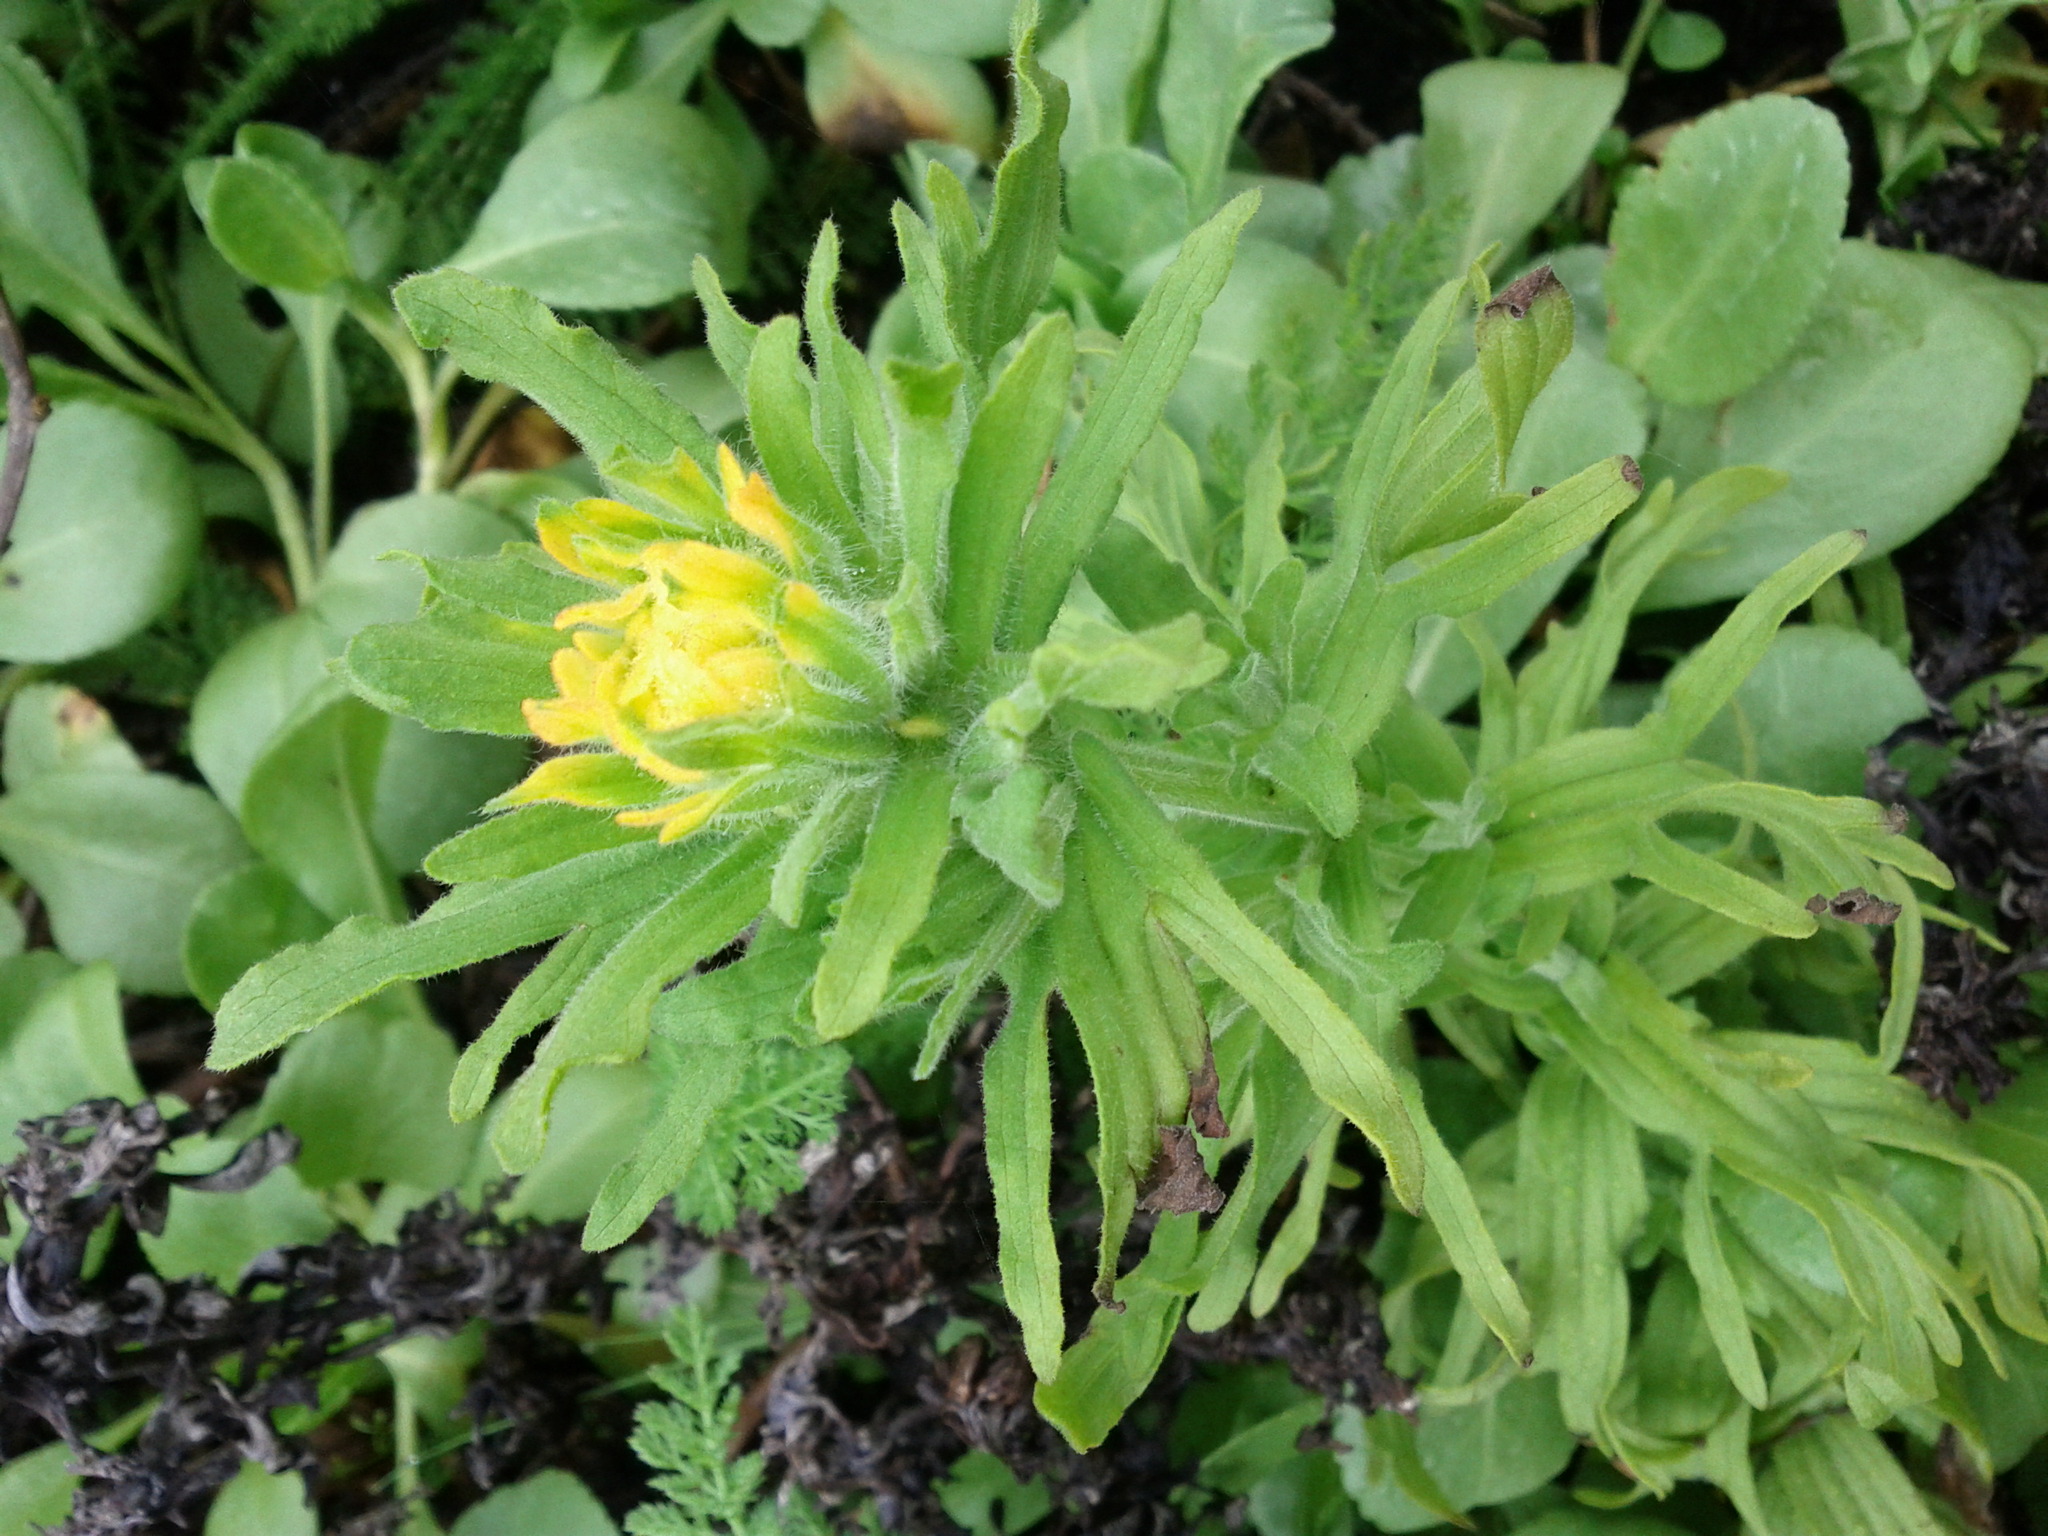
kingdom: Plantae
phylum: Tracheophyta
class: Magnoliopsida
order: Lamiales
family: Orobanchaceae
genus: Castilleja
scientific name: Castilleja wightii
